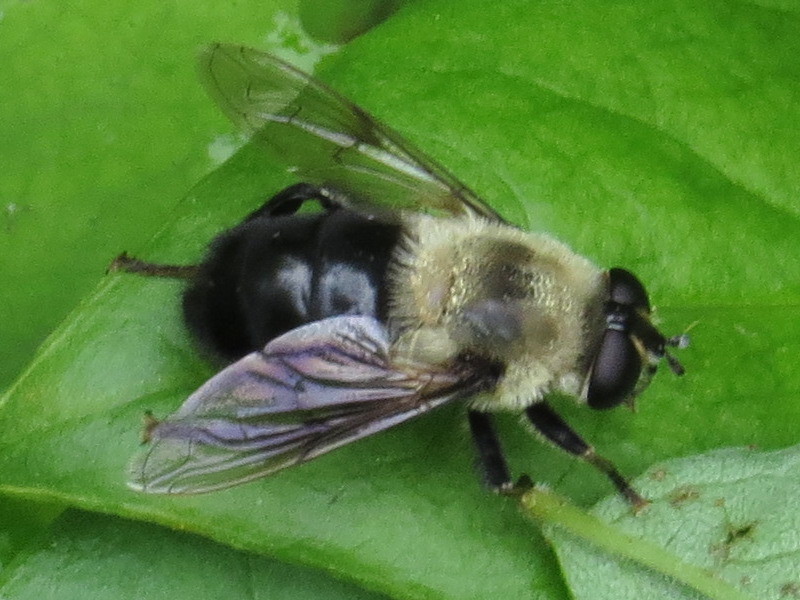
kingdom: Animalia
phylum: Arthropoda
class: Insecta
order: Diptera
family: Syrphidae
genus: Imatisma
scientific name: Imatisma bautias
